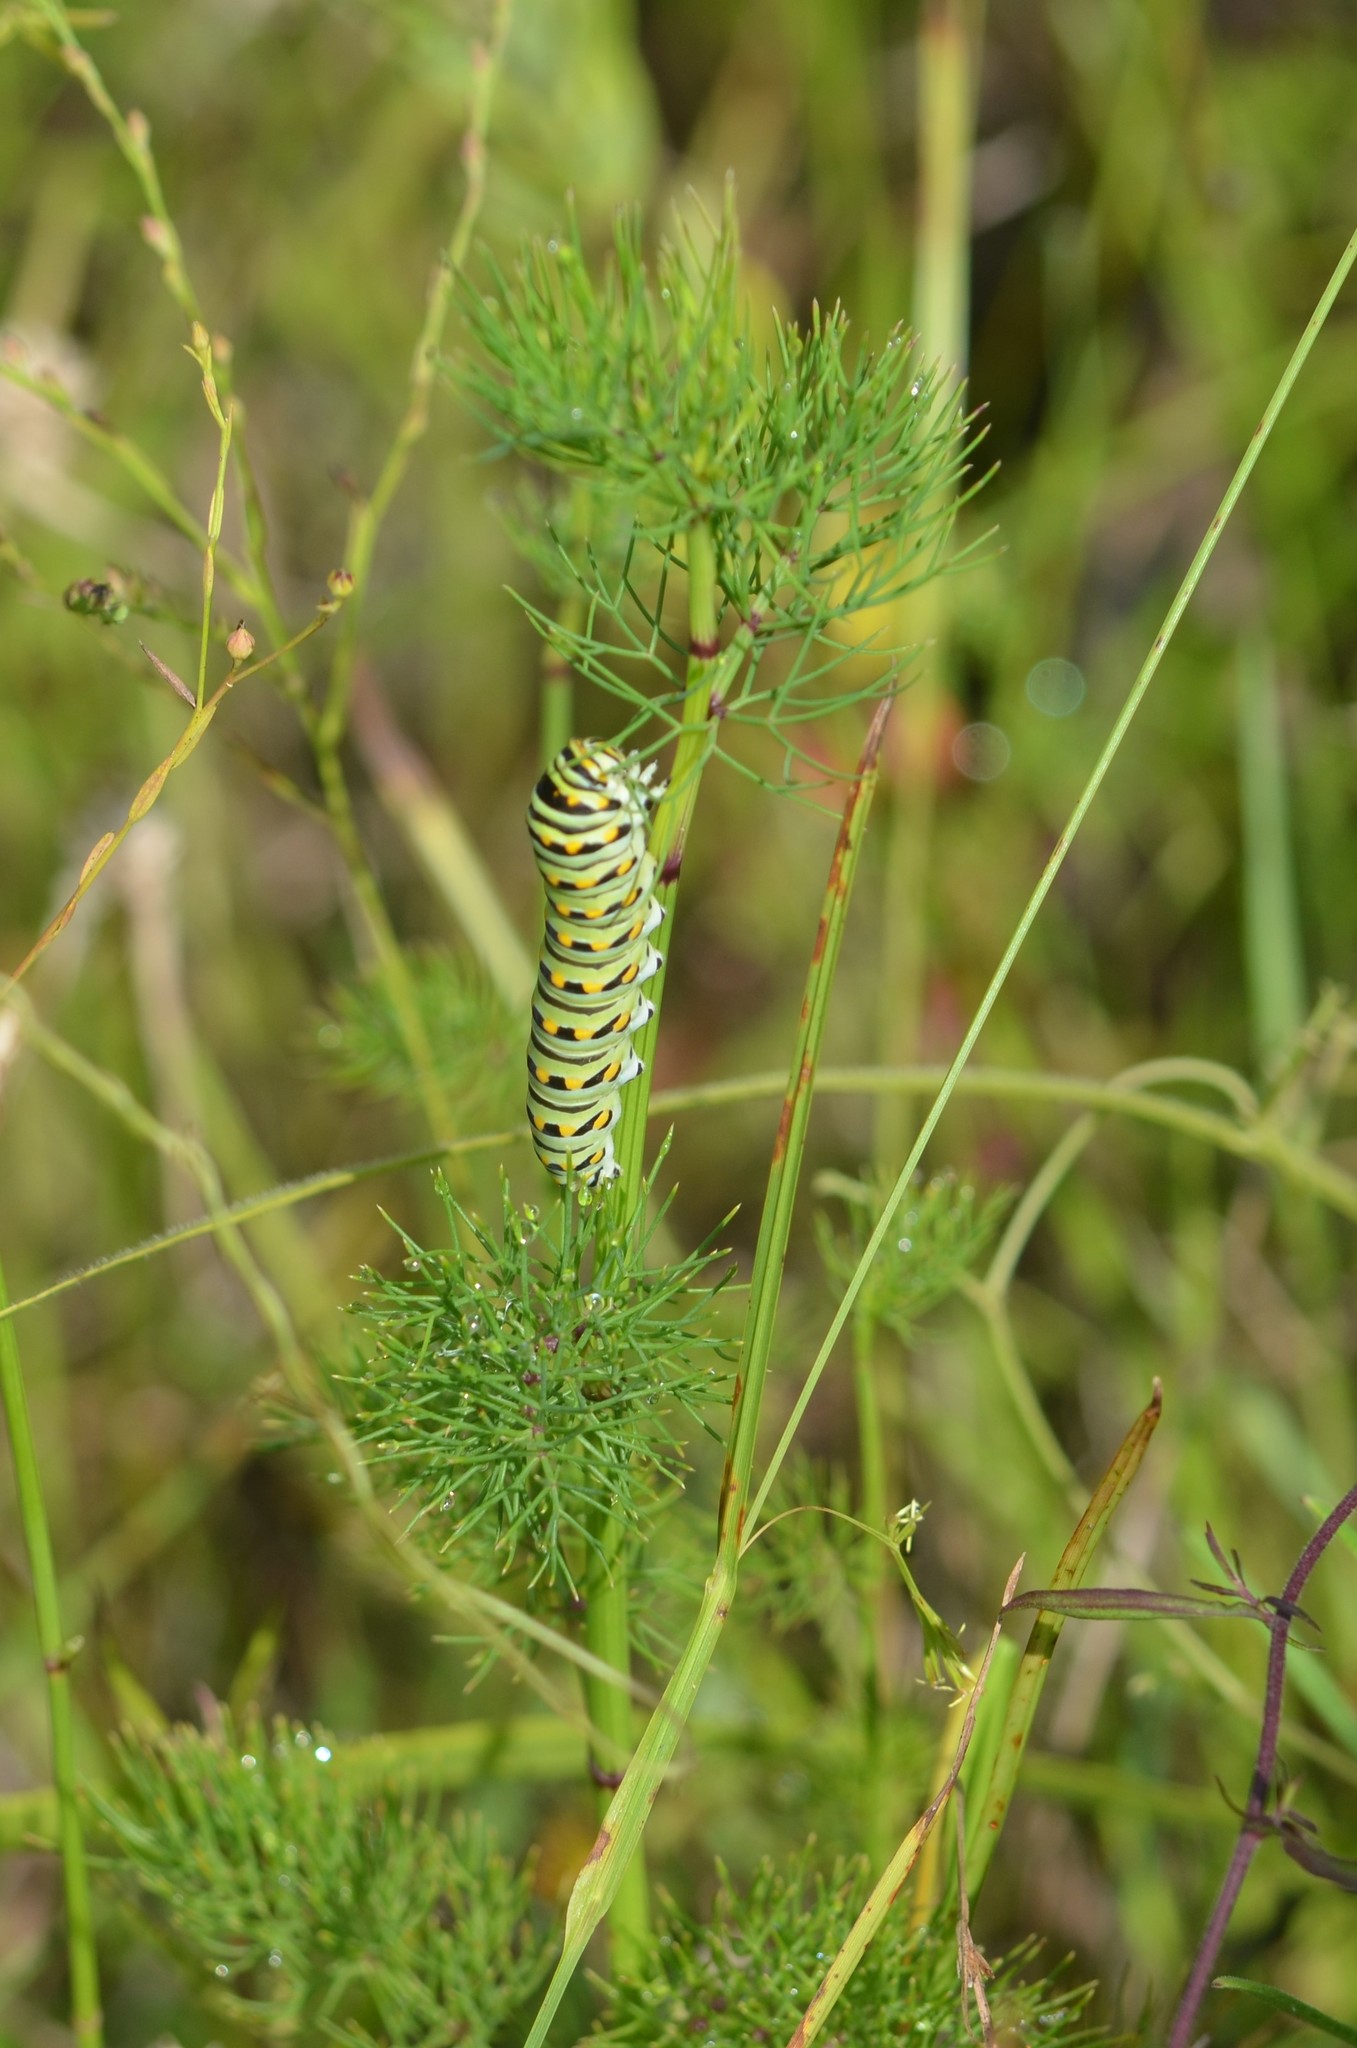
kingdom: Animalia
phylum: Arthropoda
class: Insecta
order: Lepidoptera
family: Papilionidae
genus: Papilio
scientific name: Papilio polyxenes
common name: Black swallowtail
